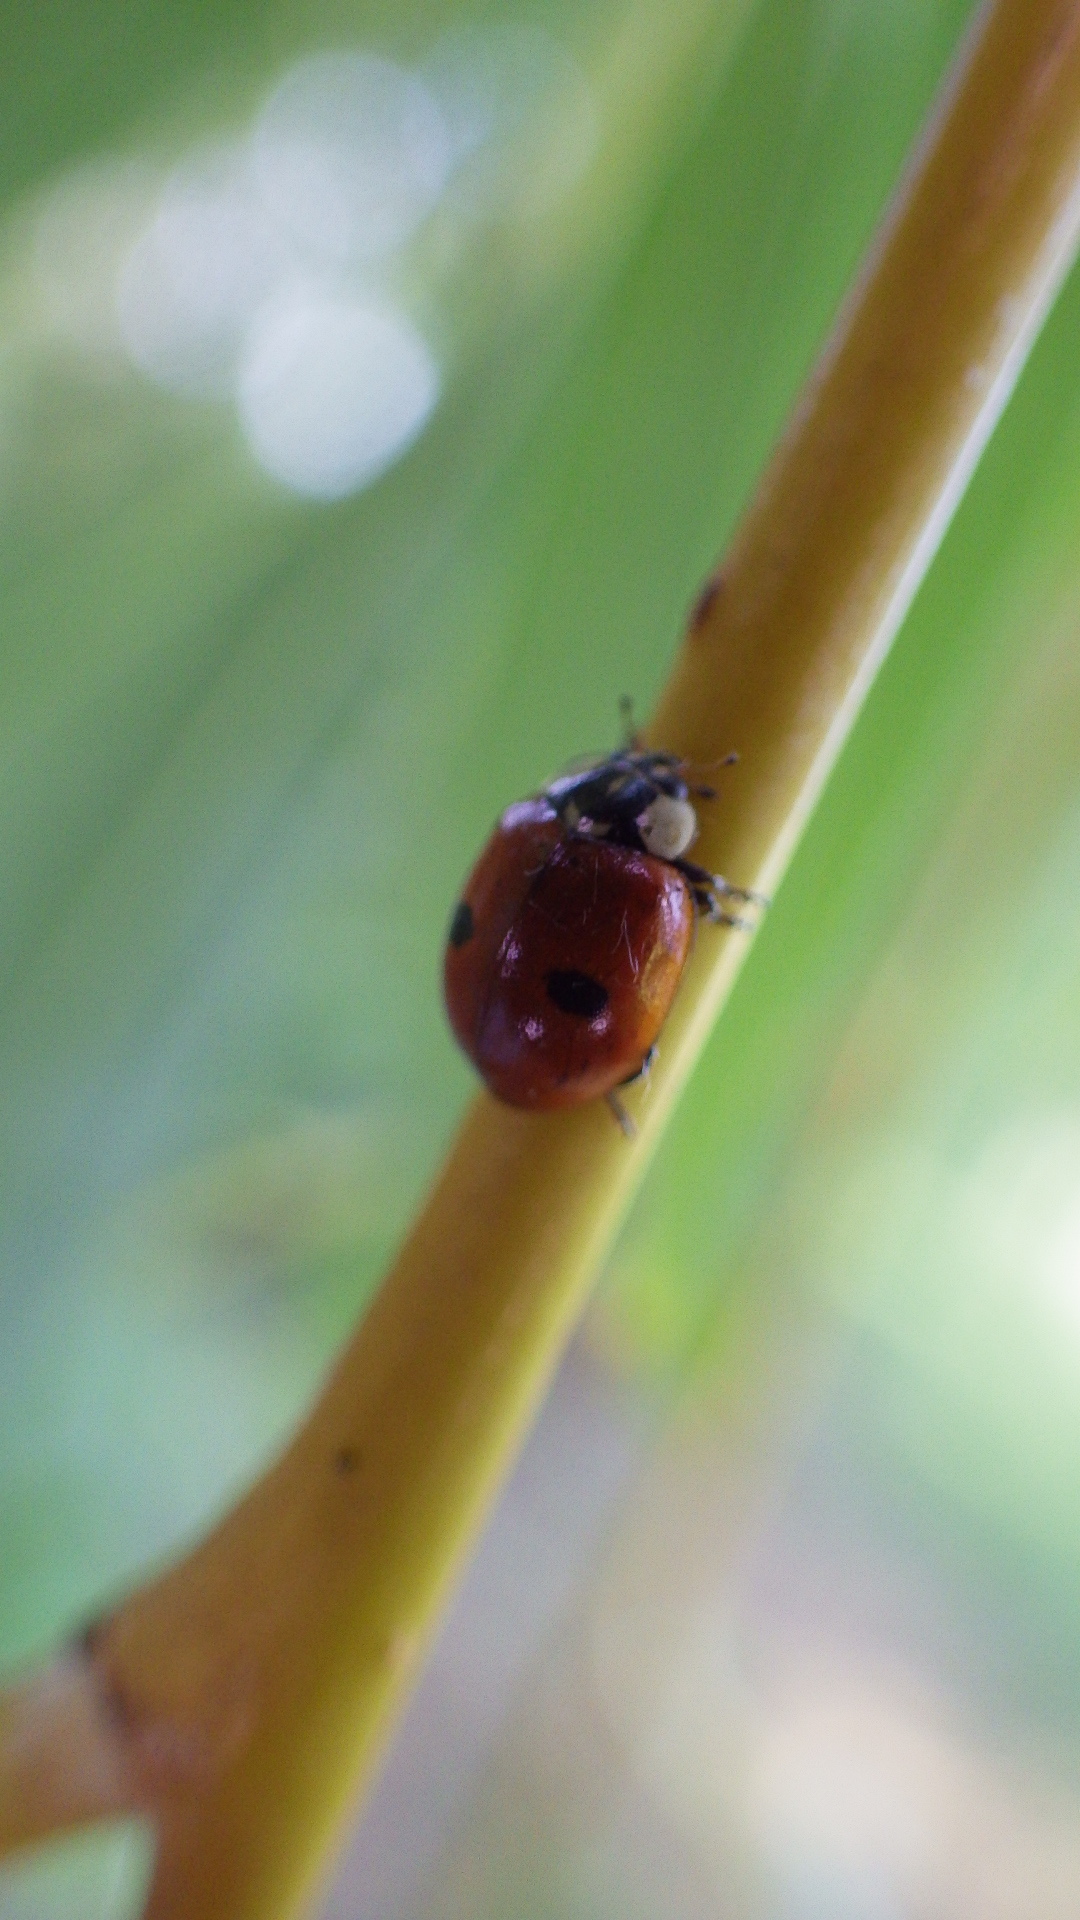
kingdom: Animalia
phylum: Arthropoda
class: Insecta
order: Coleoptera
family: Coccinellidae
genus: Adalia
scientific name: Adalia bipunctata
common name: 2-spot ladybird
